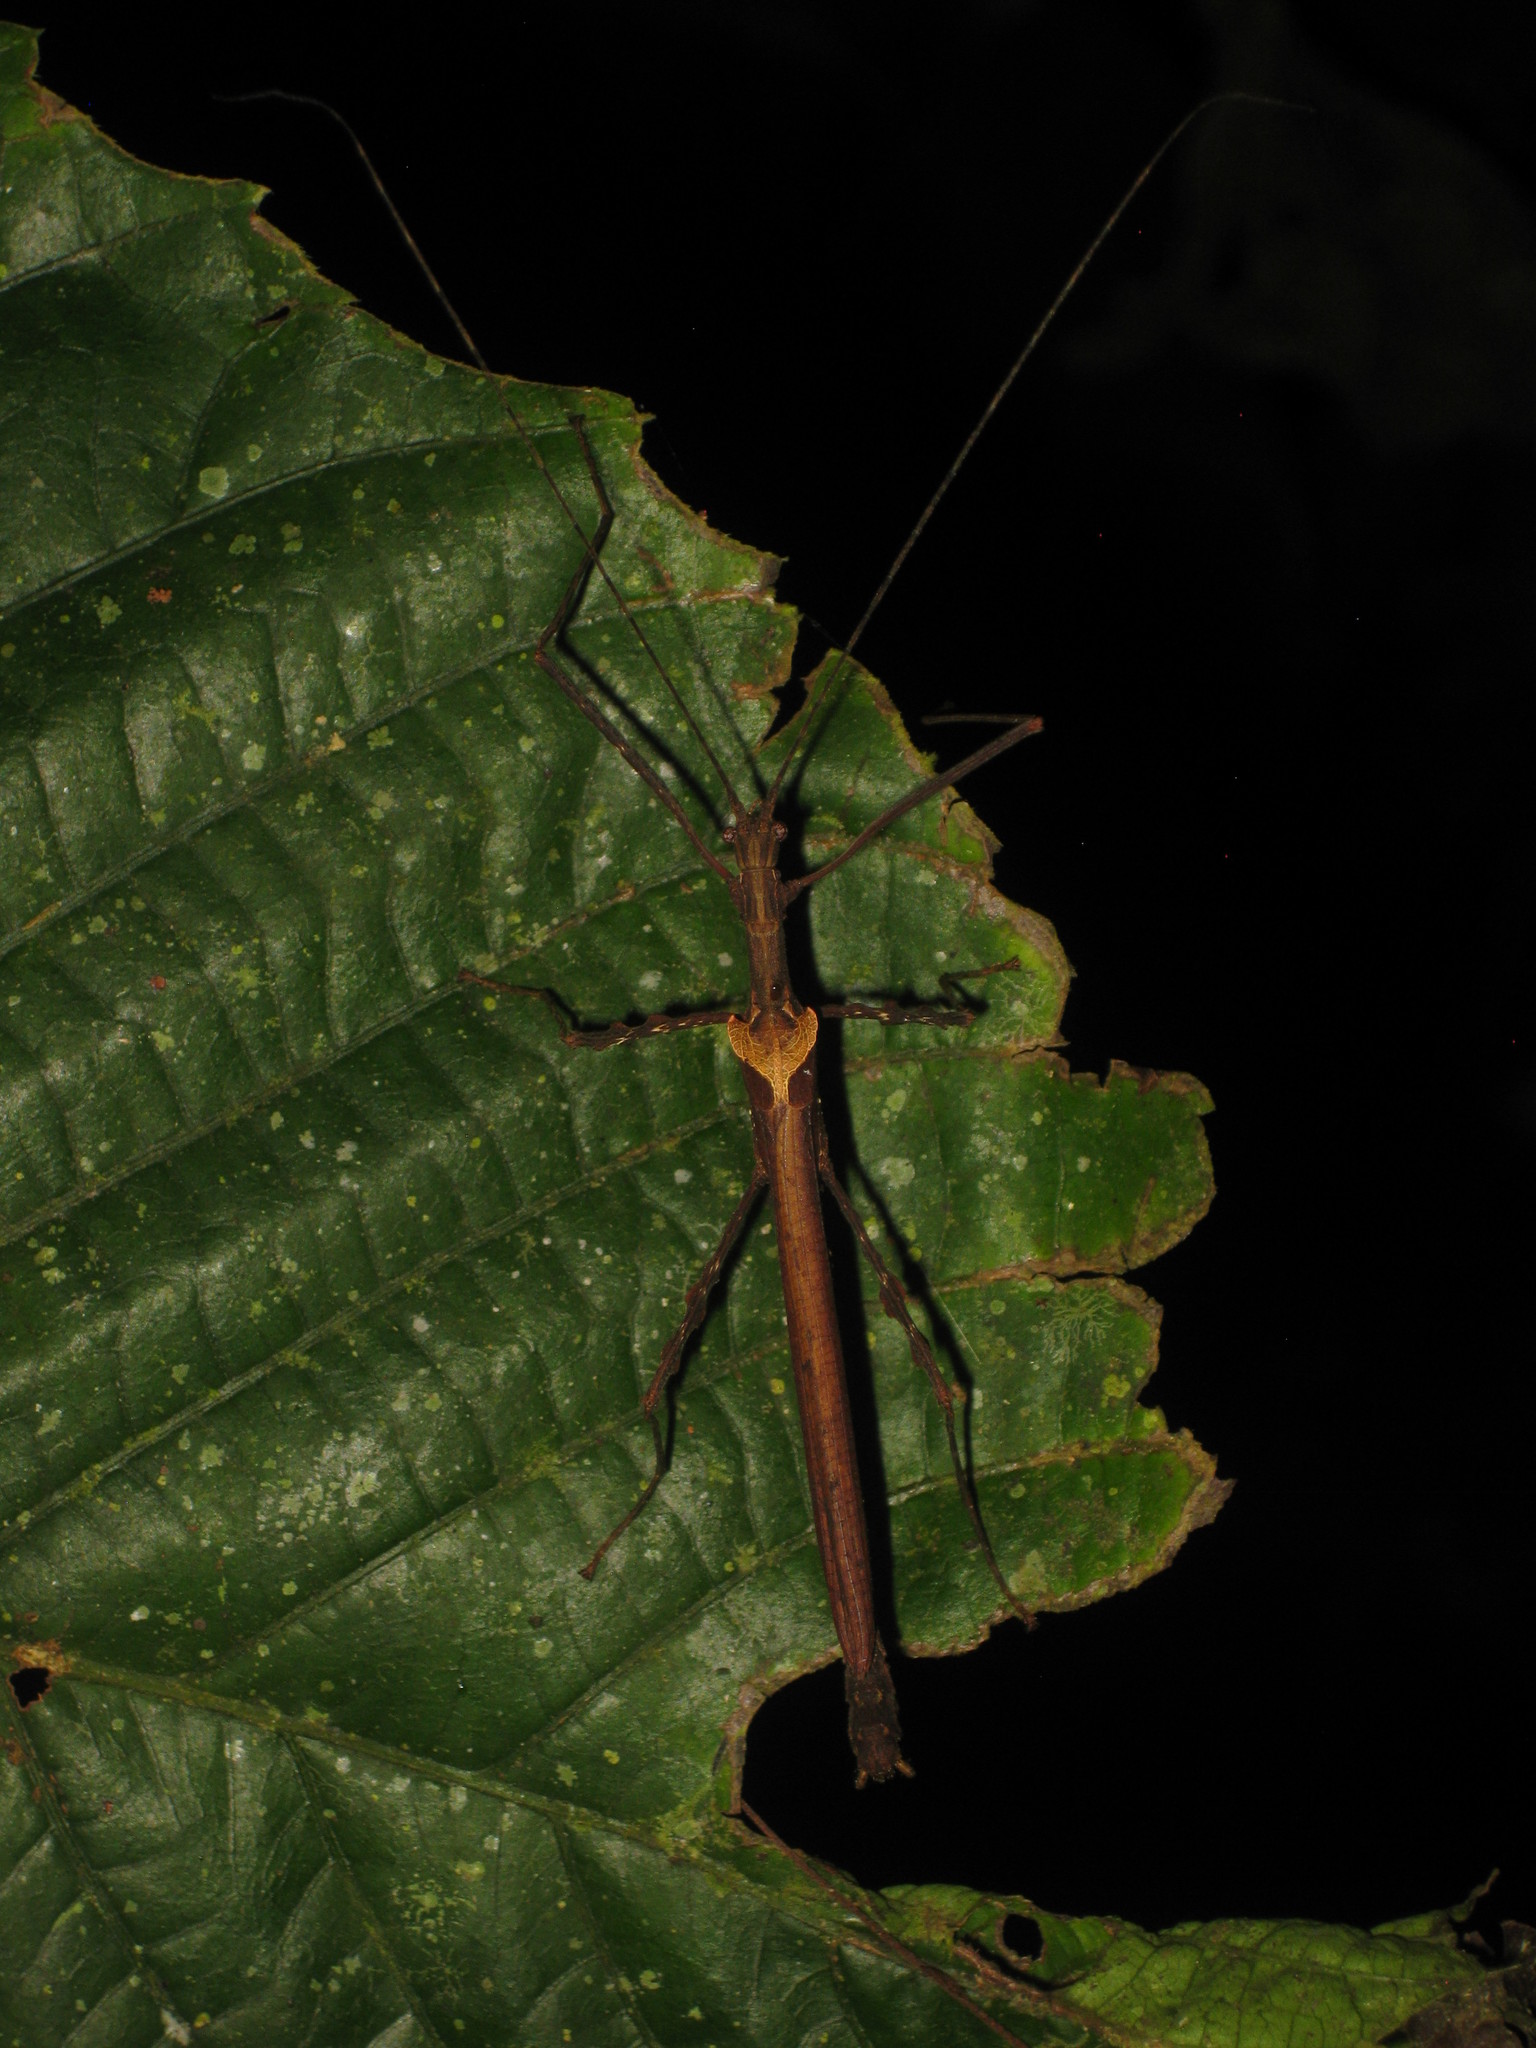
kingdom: Animalia
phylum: Arthropoda
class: Insecta
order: Phasmida
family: Pseudophasmatidae
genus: Ignacia
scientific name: Ignacia auriculata
